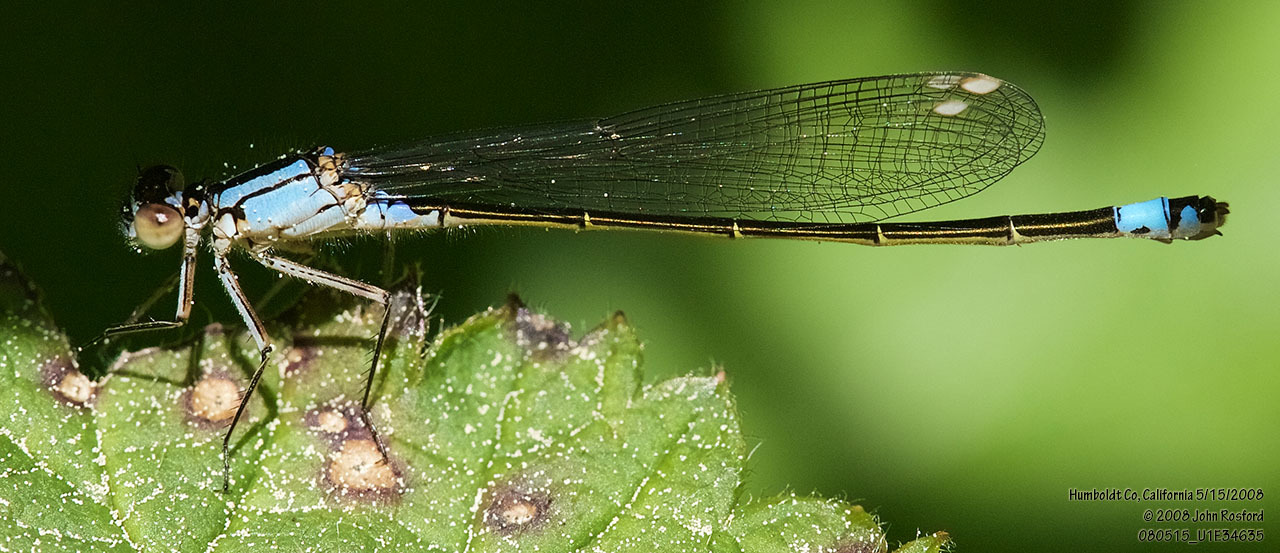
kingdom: Animalia
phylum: Arthropoda
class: Insecta
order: Odonata
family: Coenagrionidae
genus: Ischnura
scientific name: Ischnura cervula
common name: Pacific forktail
